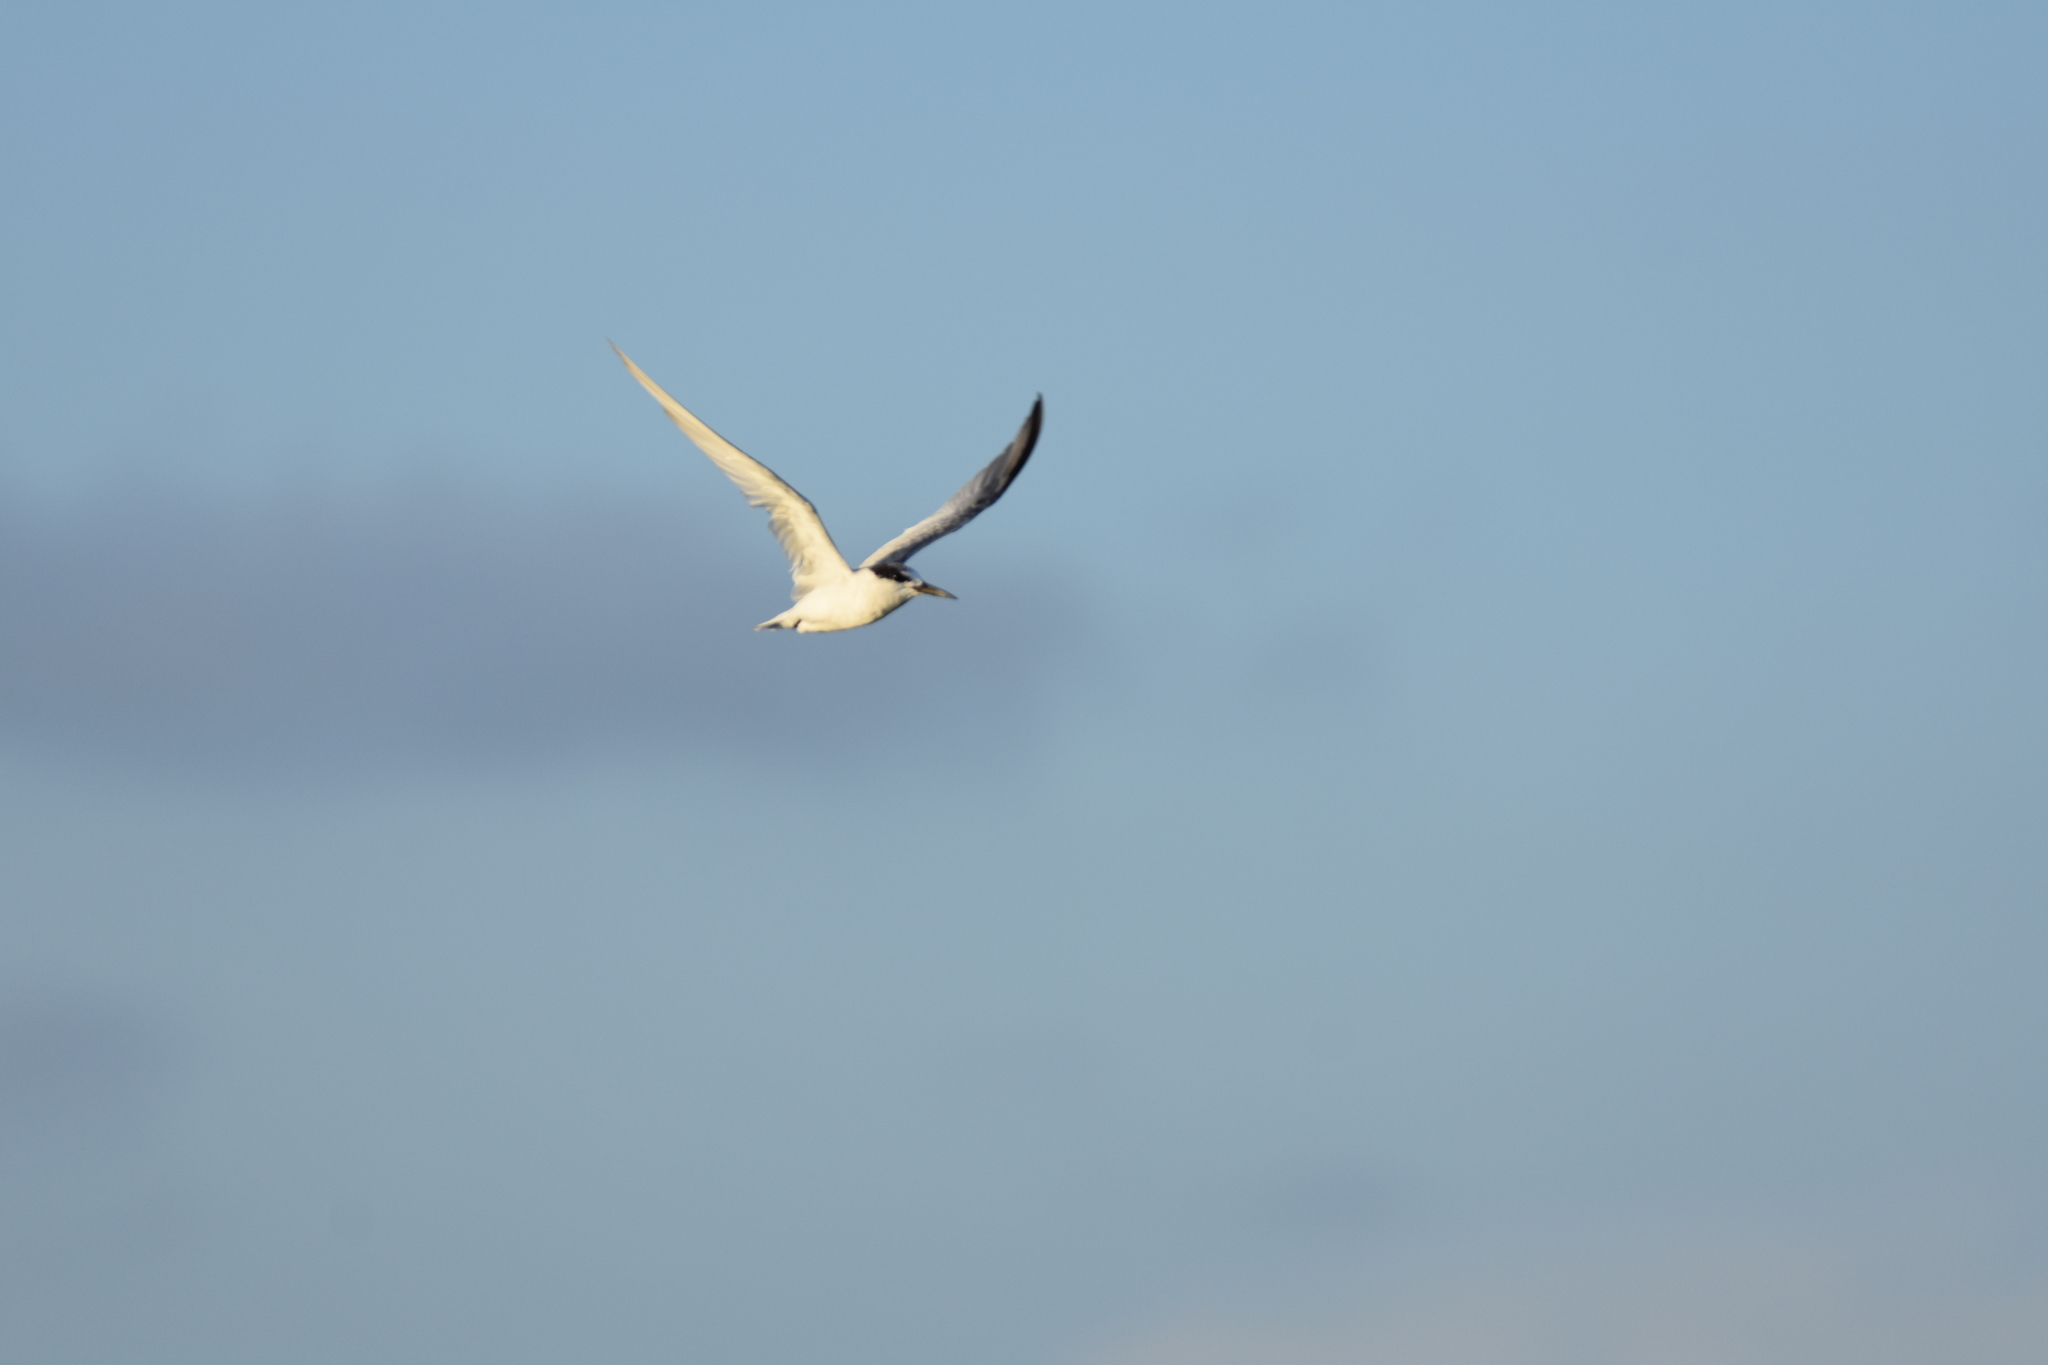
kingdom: Animalia
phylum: Chordata
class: Aves
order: Charadriiformes
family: Laridae
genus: Sternula
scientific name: Sternula antillarum
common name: Least tern
